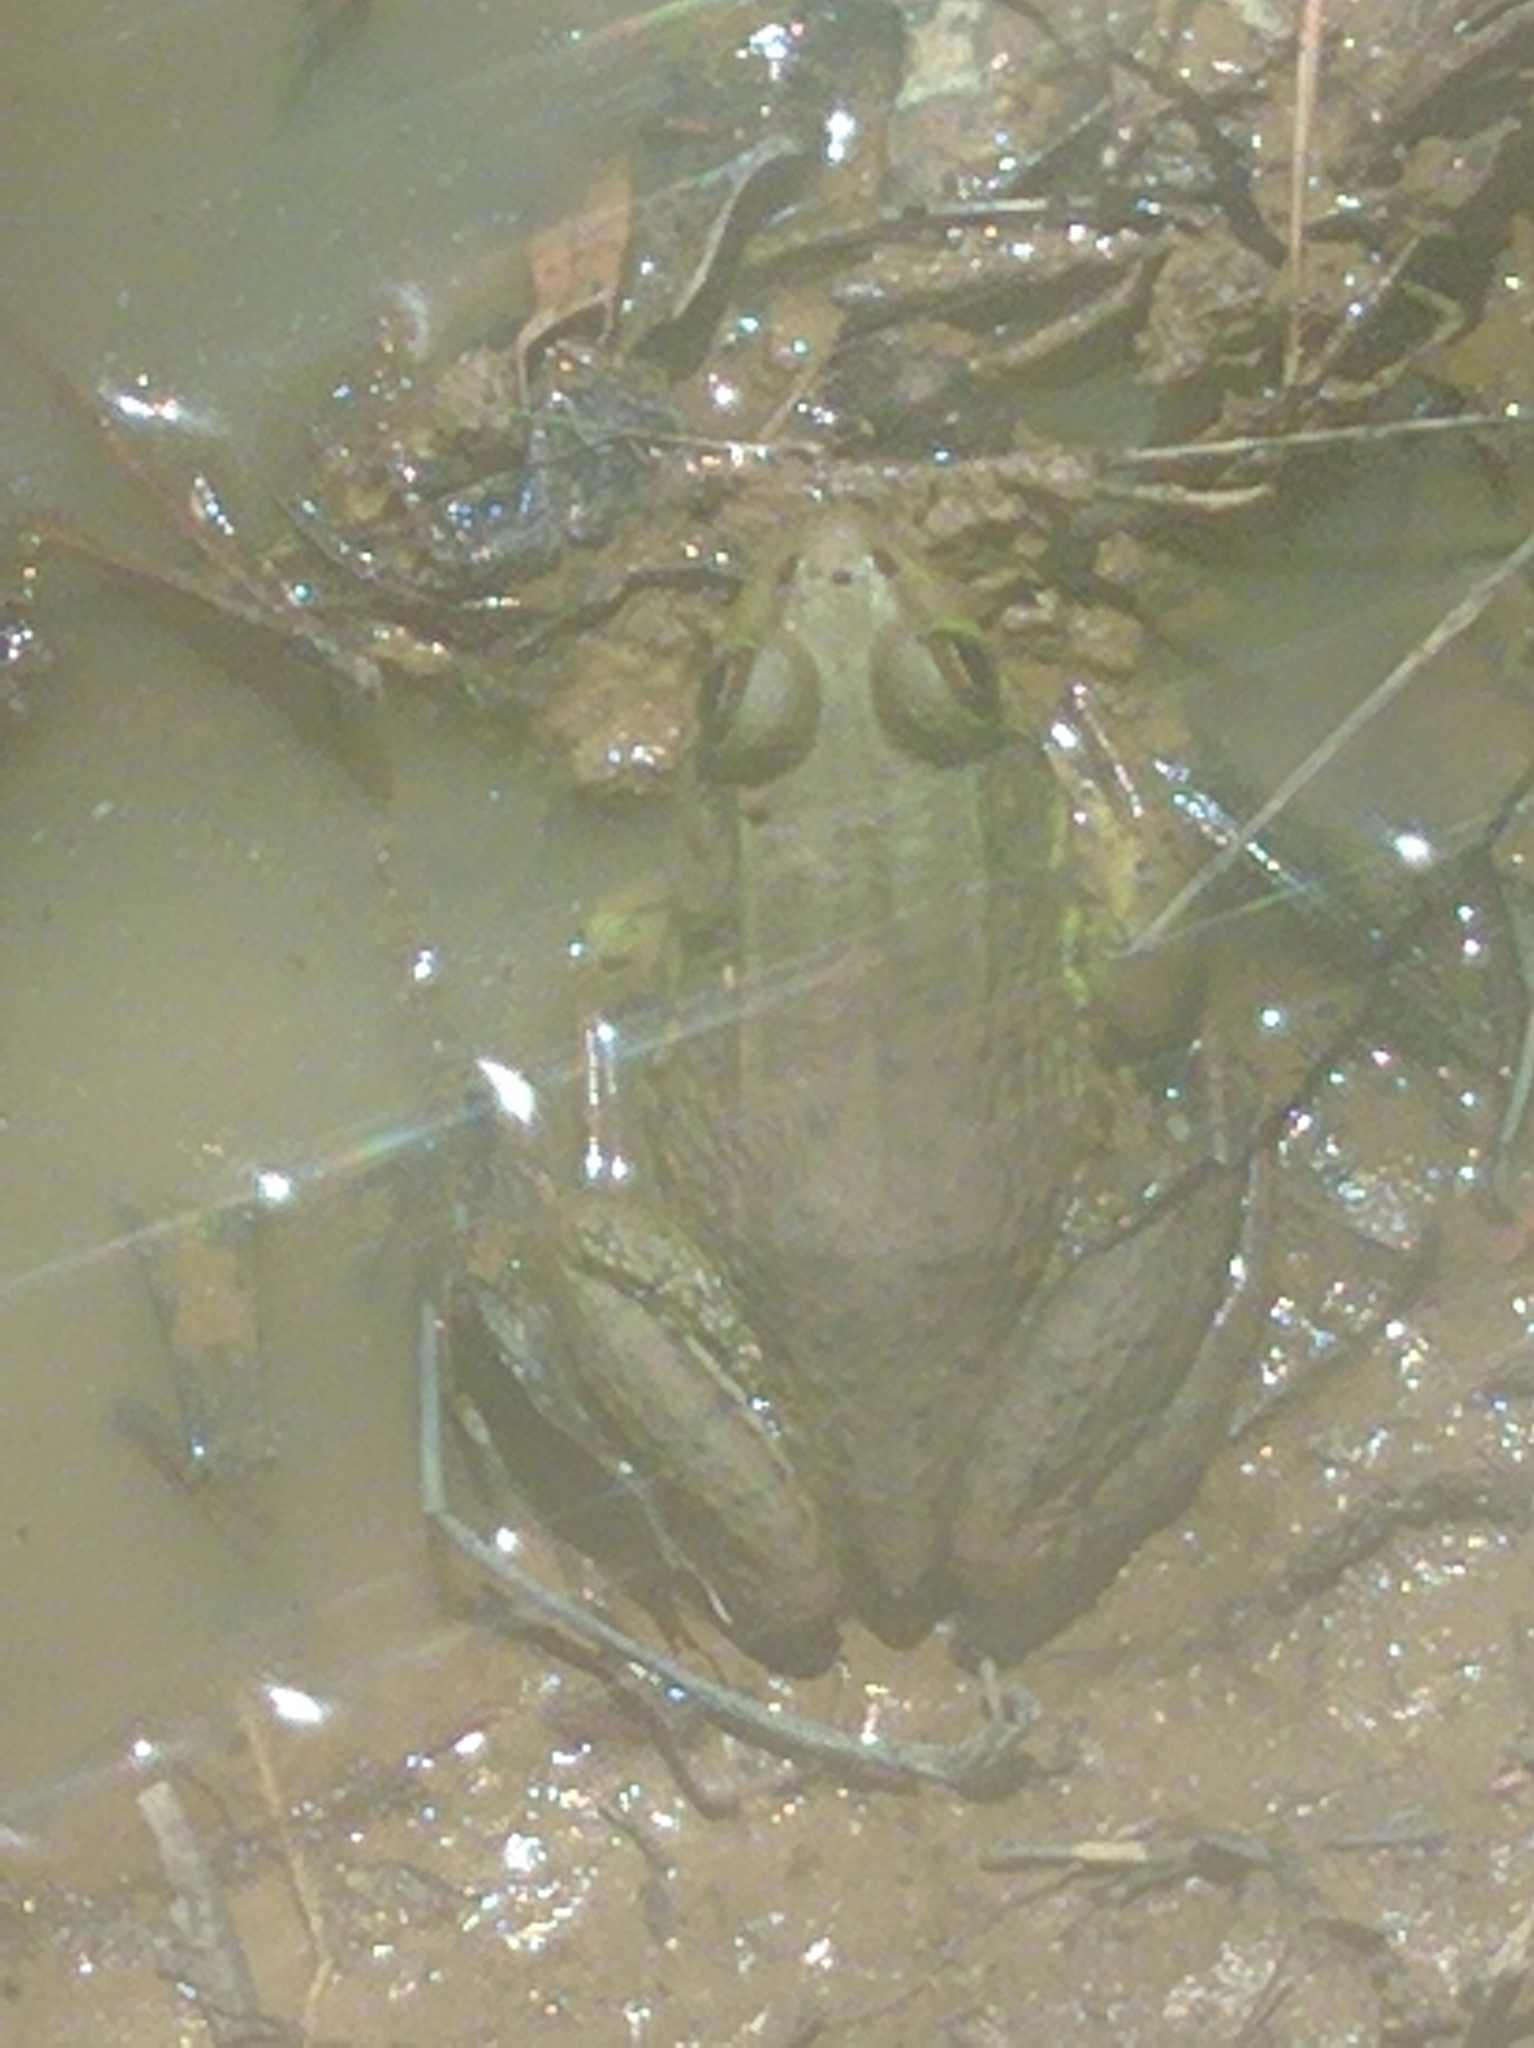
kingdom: Animalia
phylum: Chordata
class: Amphibia
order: Anura
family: Ranidae
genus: Lithobates
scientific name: Lithobates clamitans
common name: Green frog
